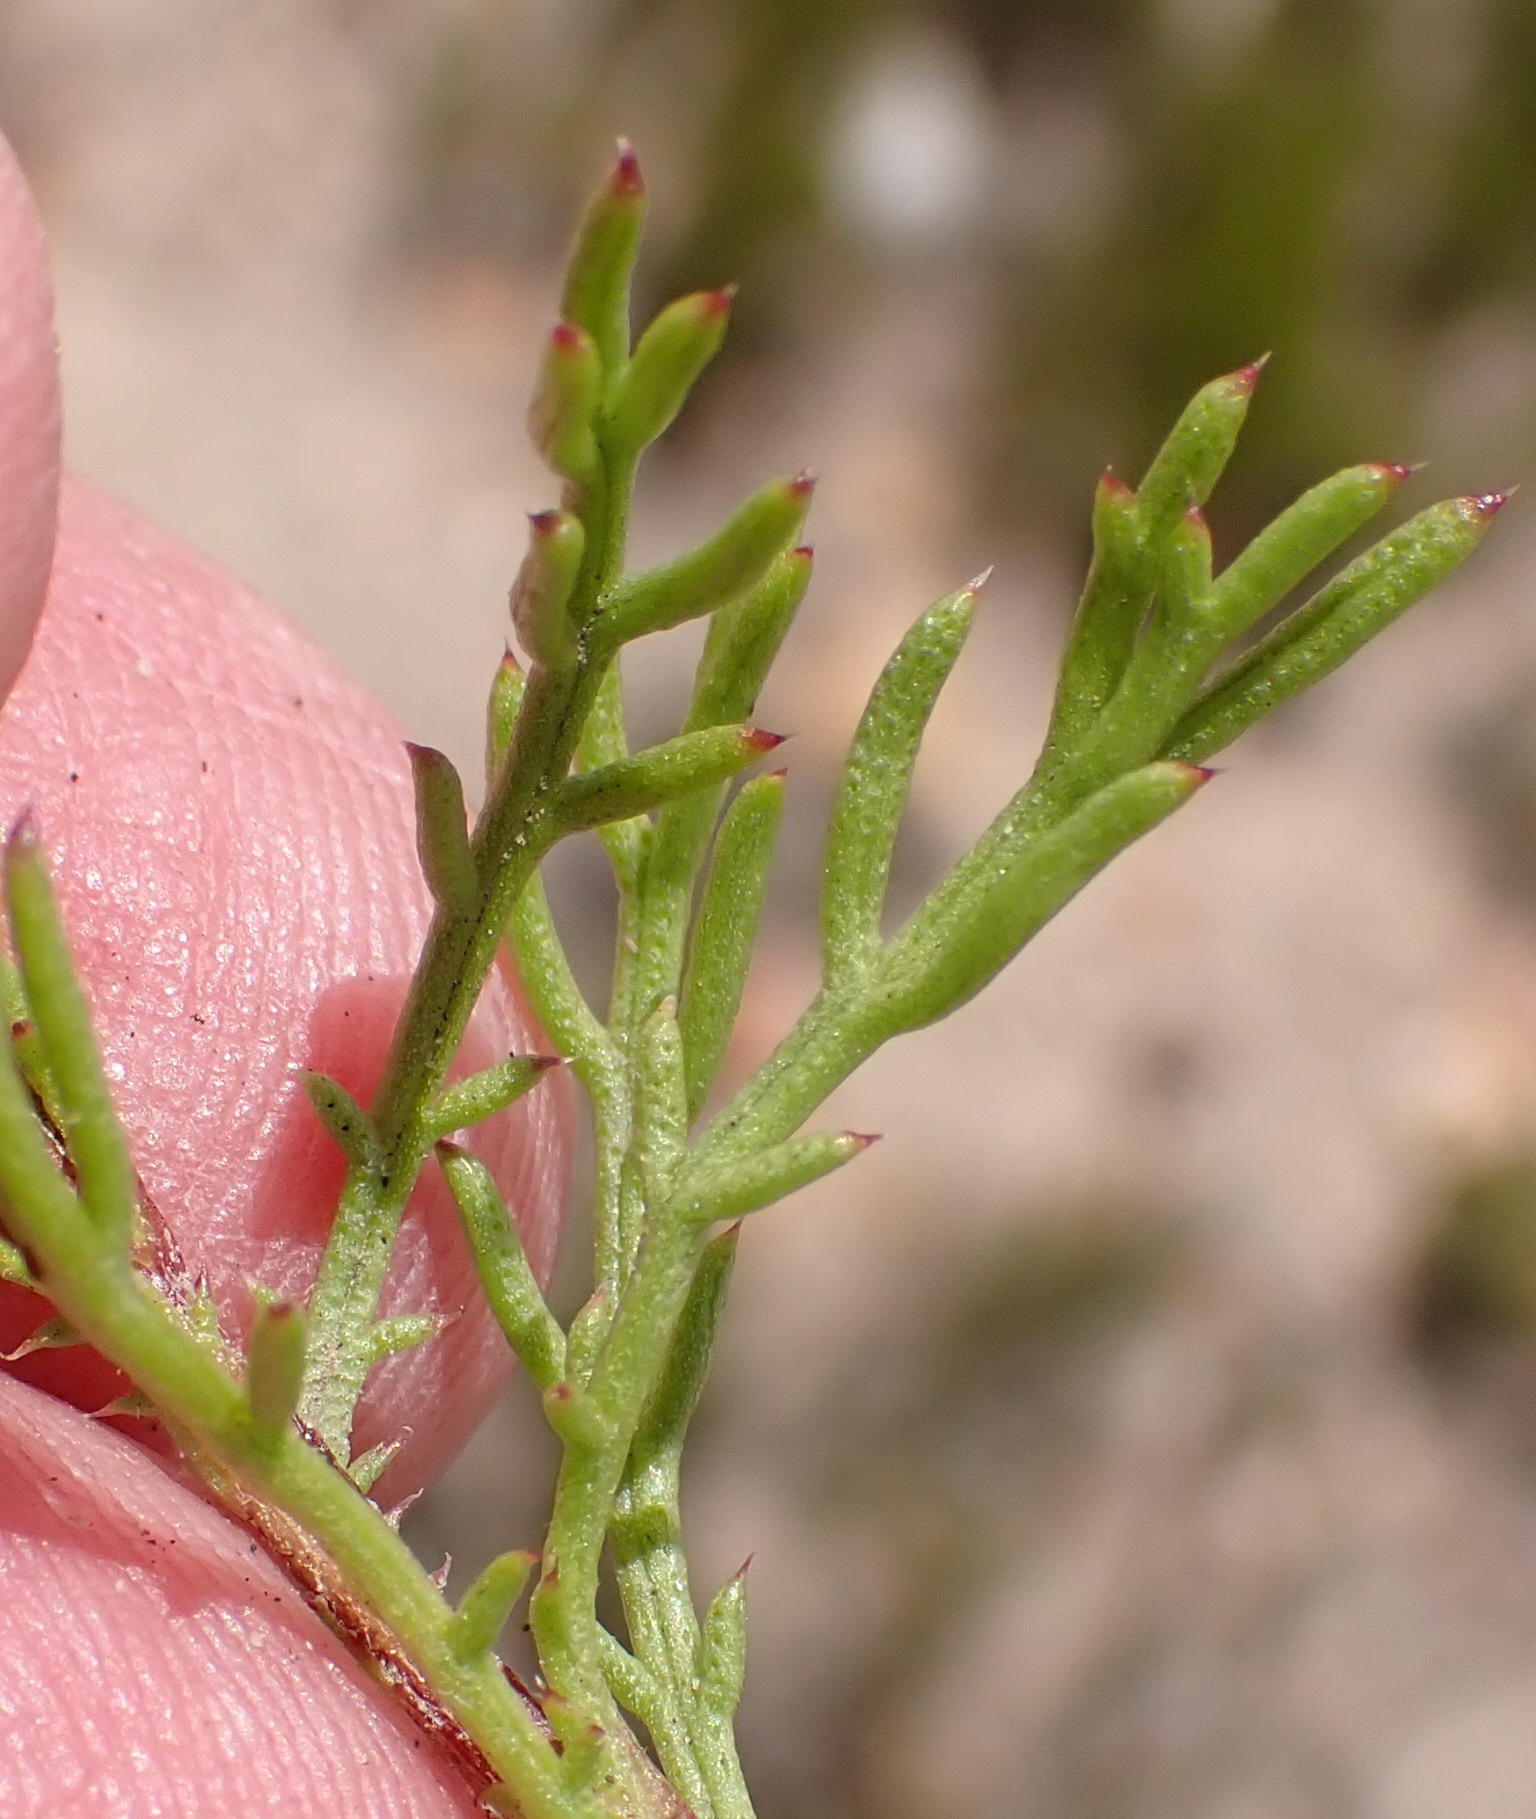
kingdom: Plantae
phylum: Tracheophyta
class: Magnoliopsida
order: Asterales
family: Asteraceae
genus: Ursinia
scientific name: Ursinia heterodonta
